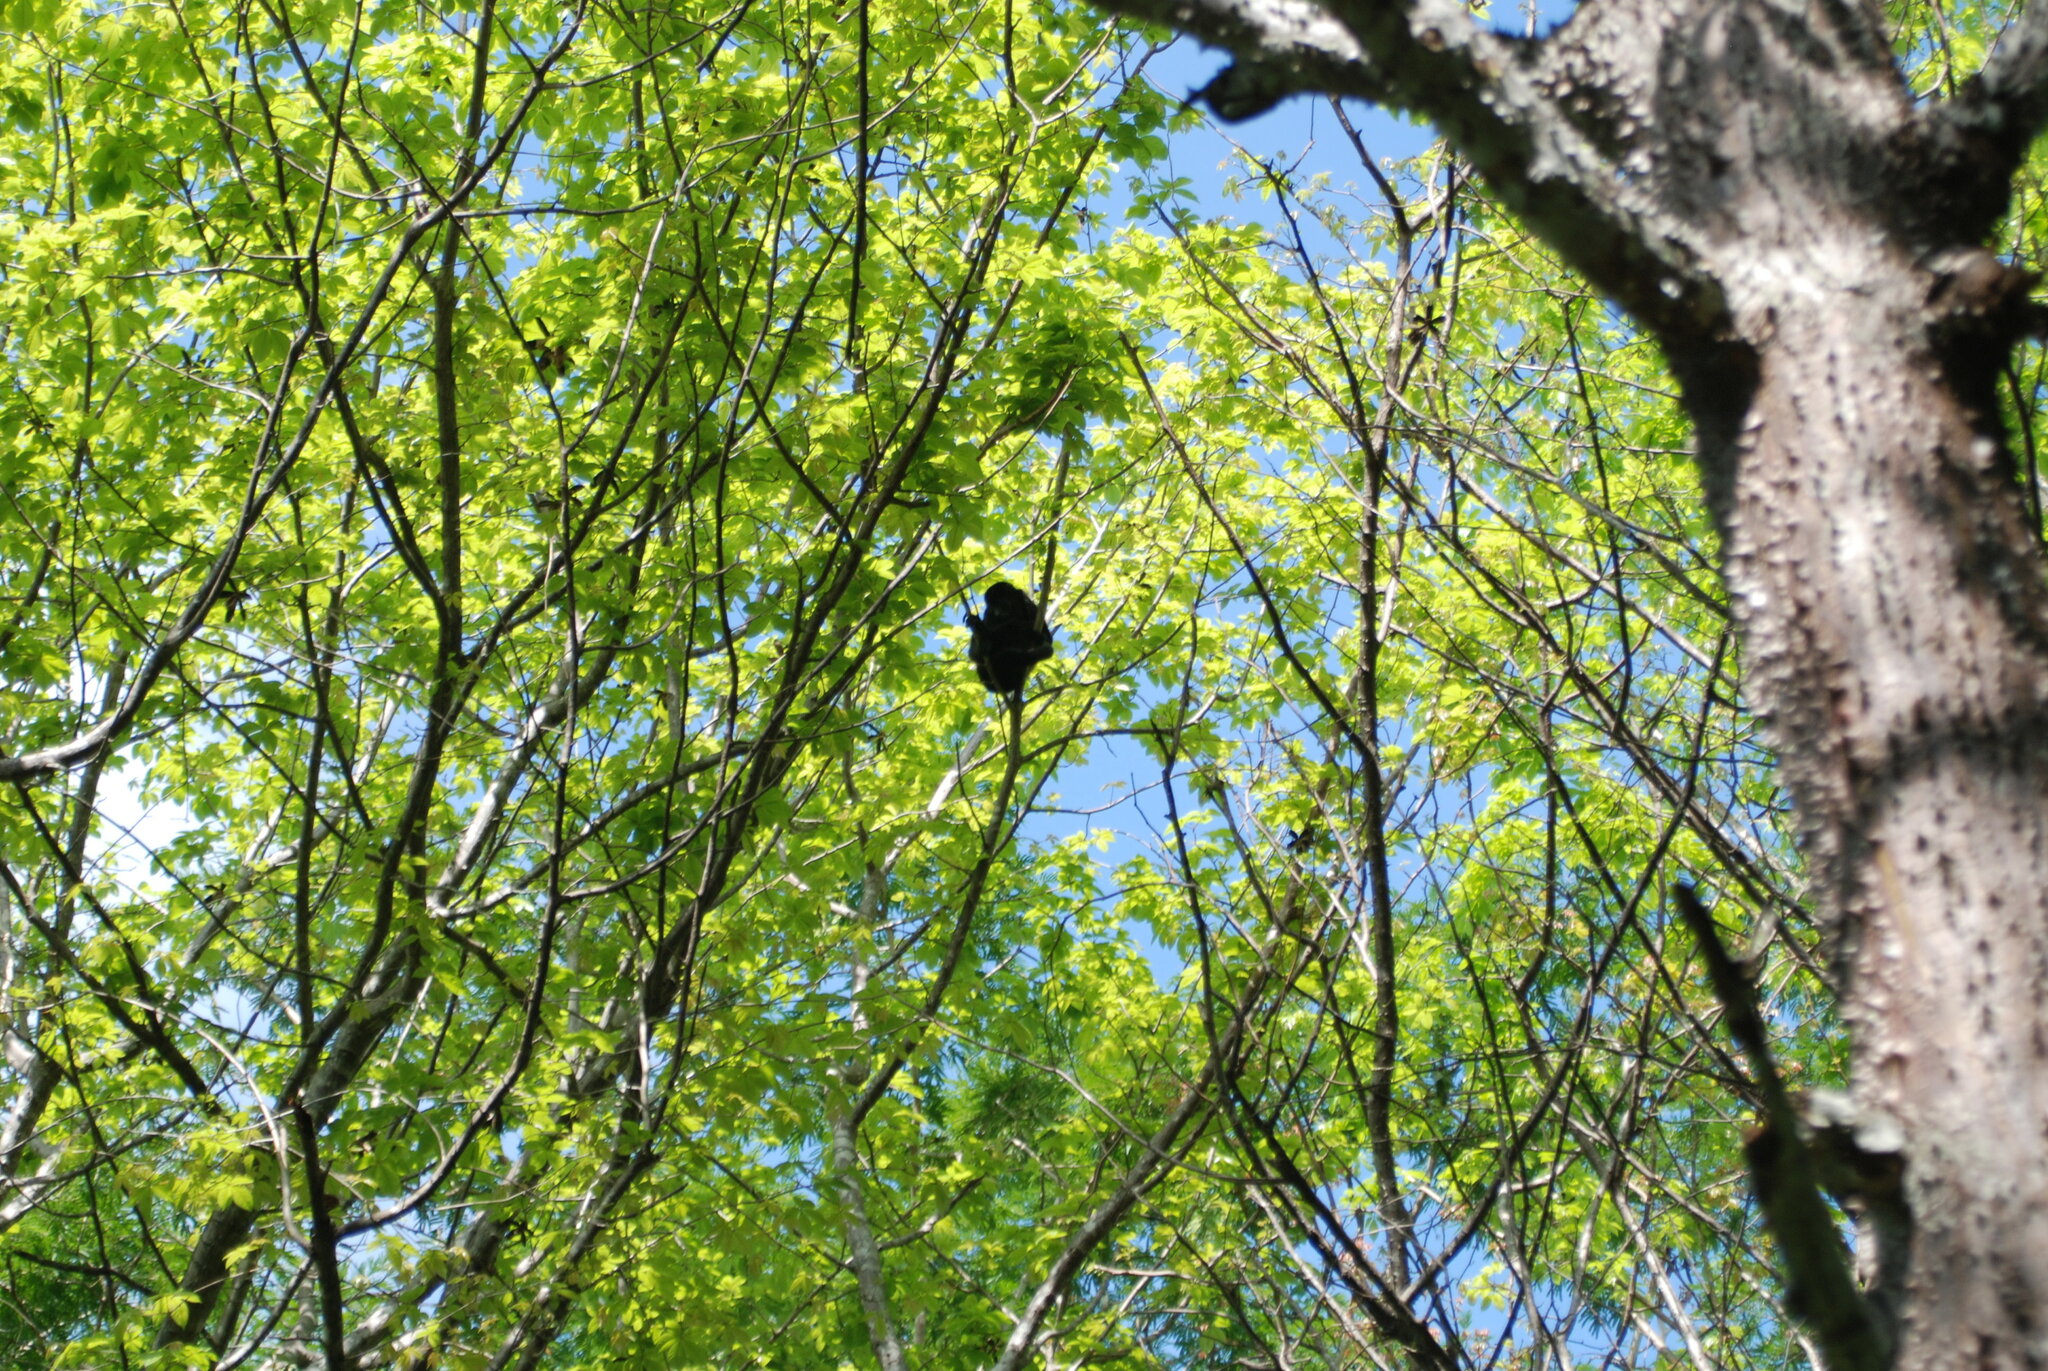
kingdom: Animalia
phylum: Chordata
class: Mammalia
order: Primates
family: Atelidae
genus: Alouatta
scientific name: Alouatta palliata
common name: Mantled howler
